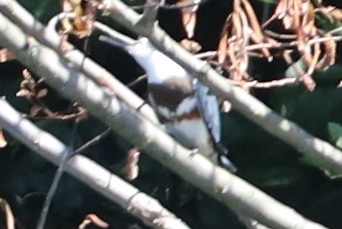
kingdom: Animalia
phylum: Chordata
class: Aves
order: Coraciiformes
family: Alcedinidae
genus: Megaceryle
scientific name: Megaceryle alcyon
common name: Belted kingfisher
